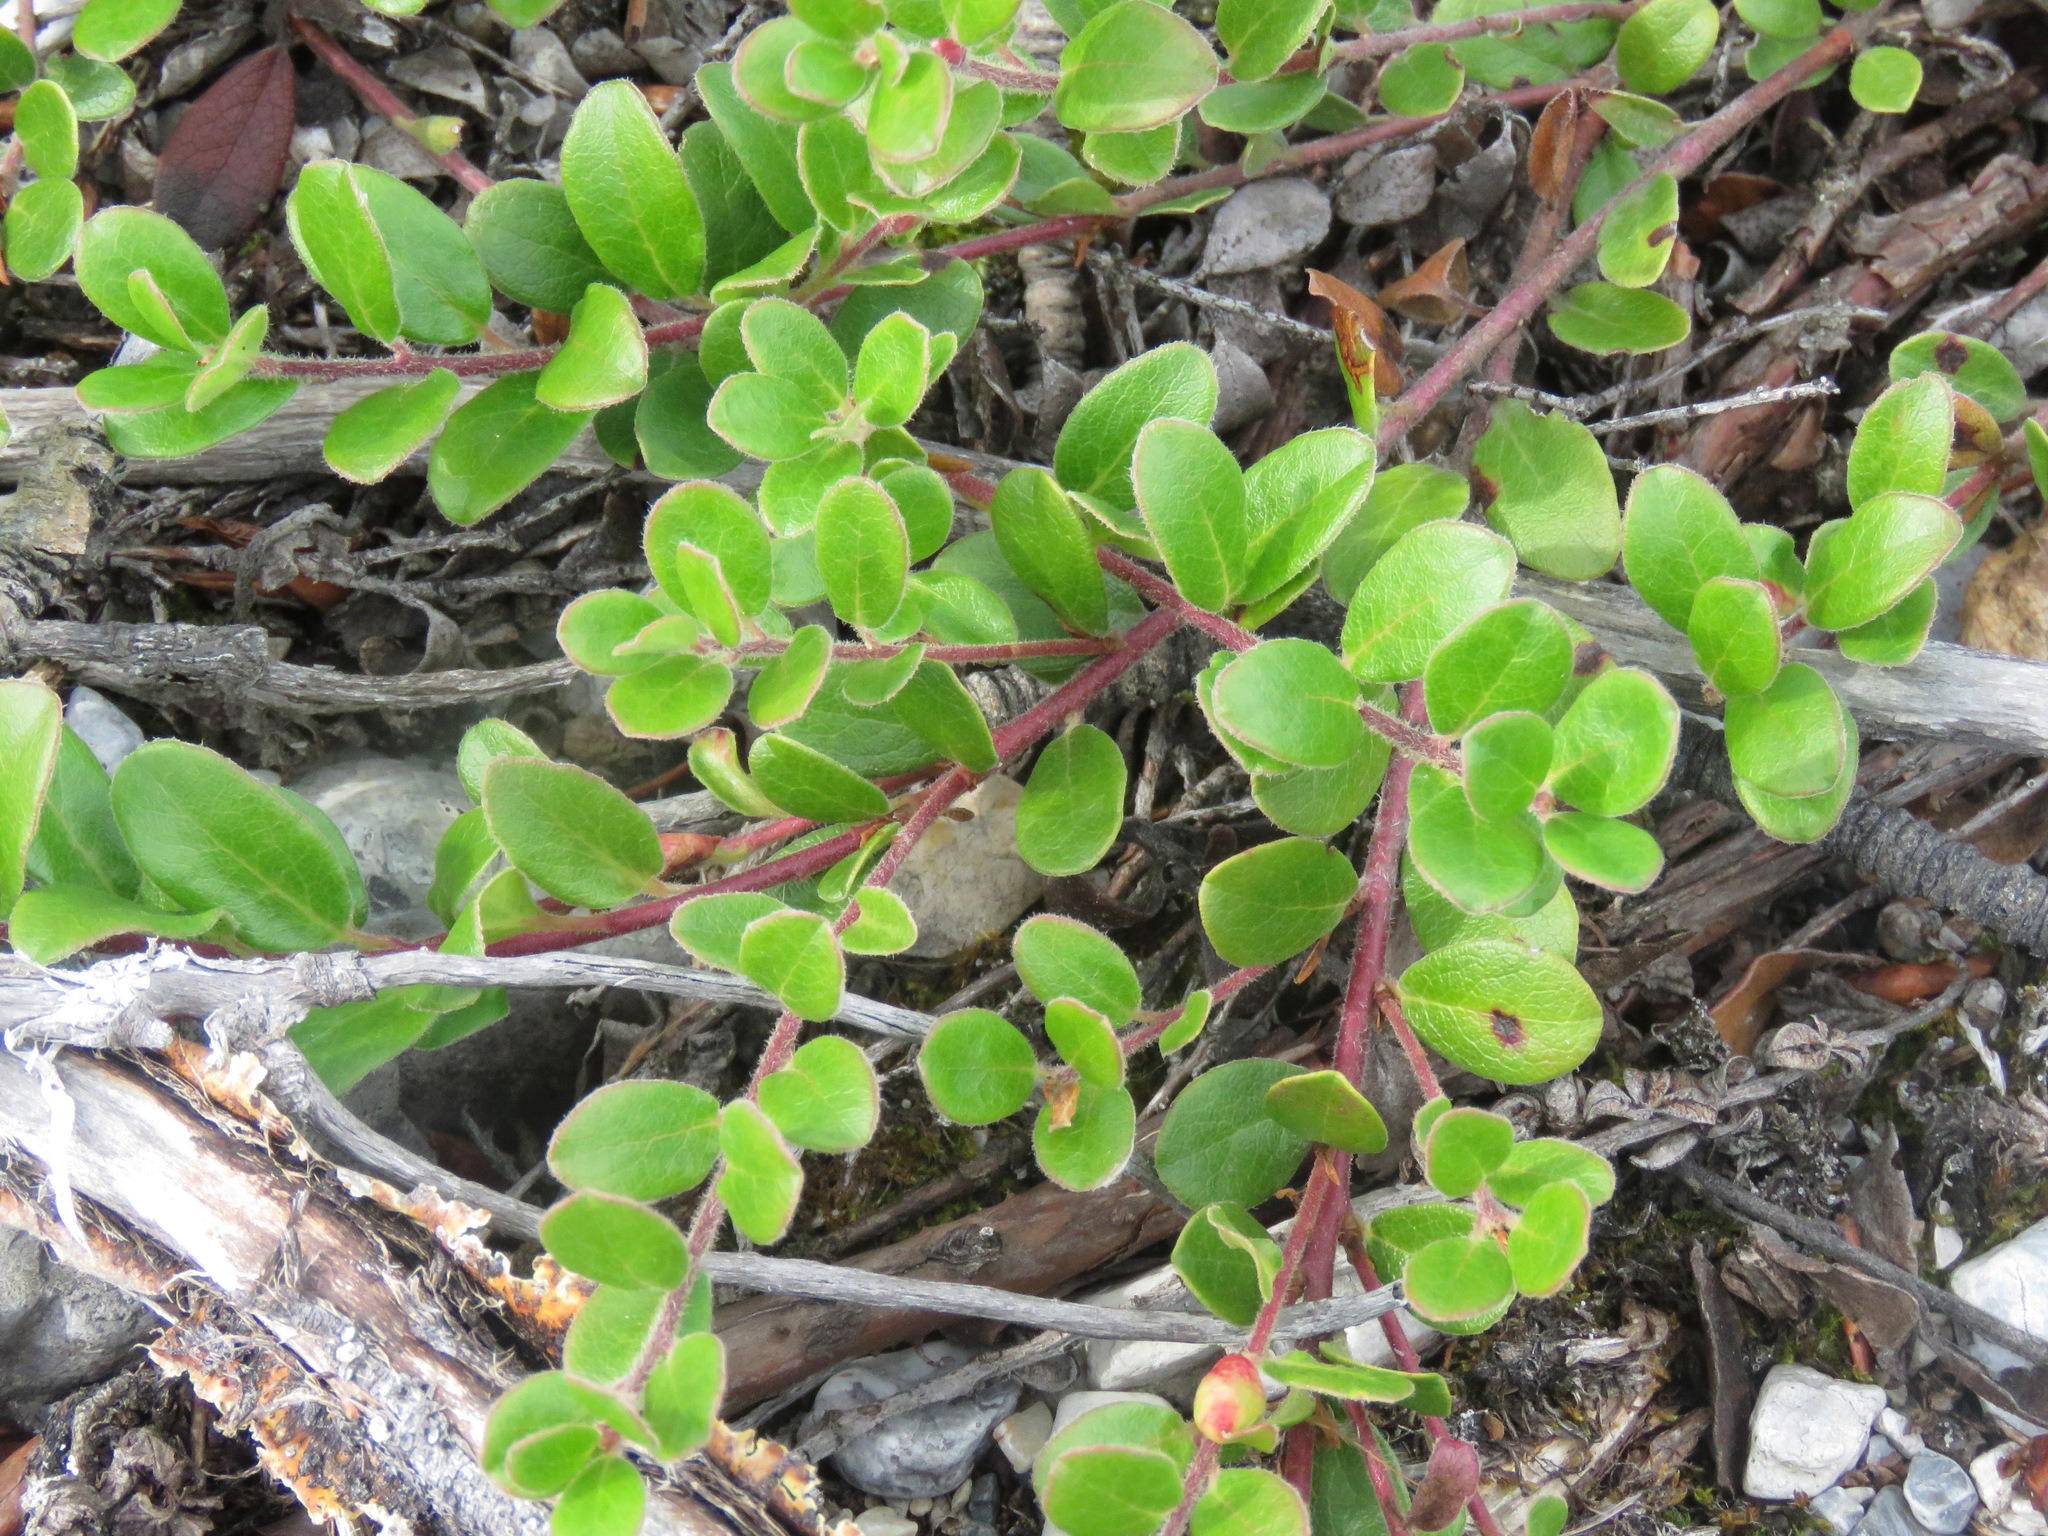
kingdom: Plantae
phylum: Tracheophyta
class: Magnoliopsida
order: Ericales
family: Ericaceae
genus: Arctostaphylos
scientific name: Arctostaphylos uva-ursi
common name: Bearberry
